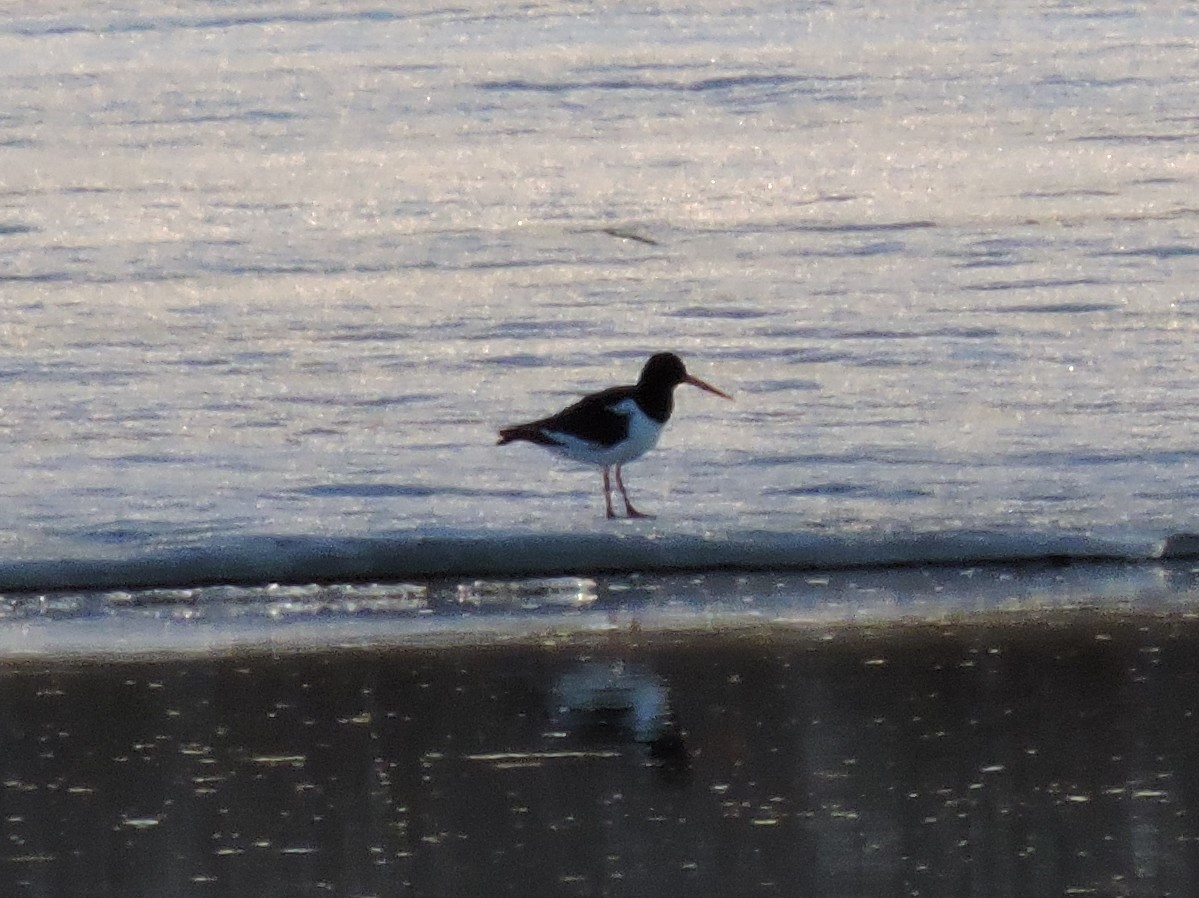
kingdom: Animalia
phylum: Chordata
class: Aves
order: Charadriiformes
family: Haematopodidae
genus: Haematopus
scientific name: Haematopus ostralegus
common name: Eurasian oystercatcher
